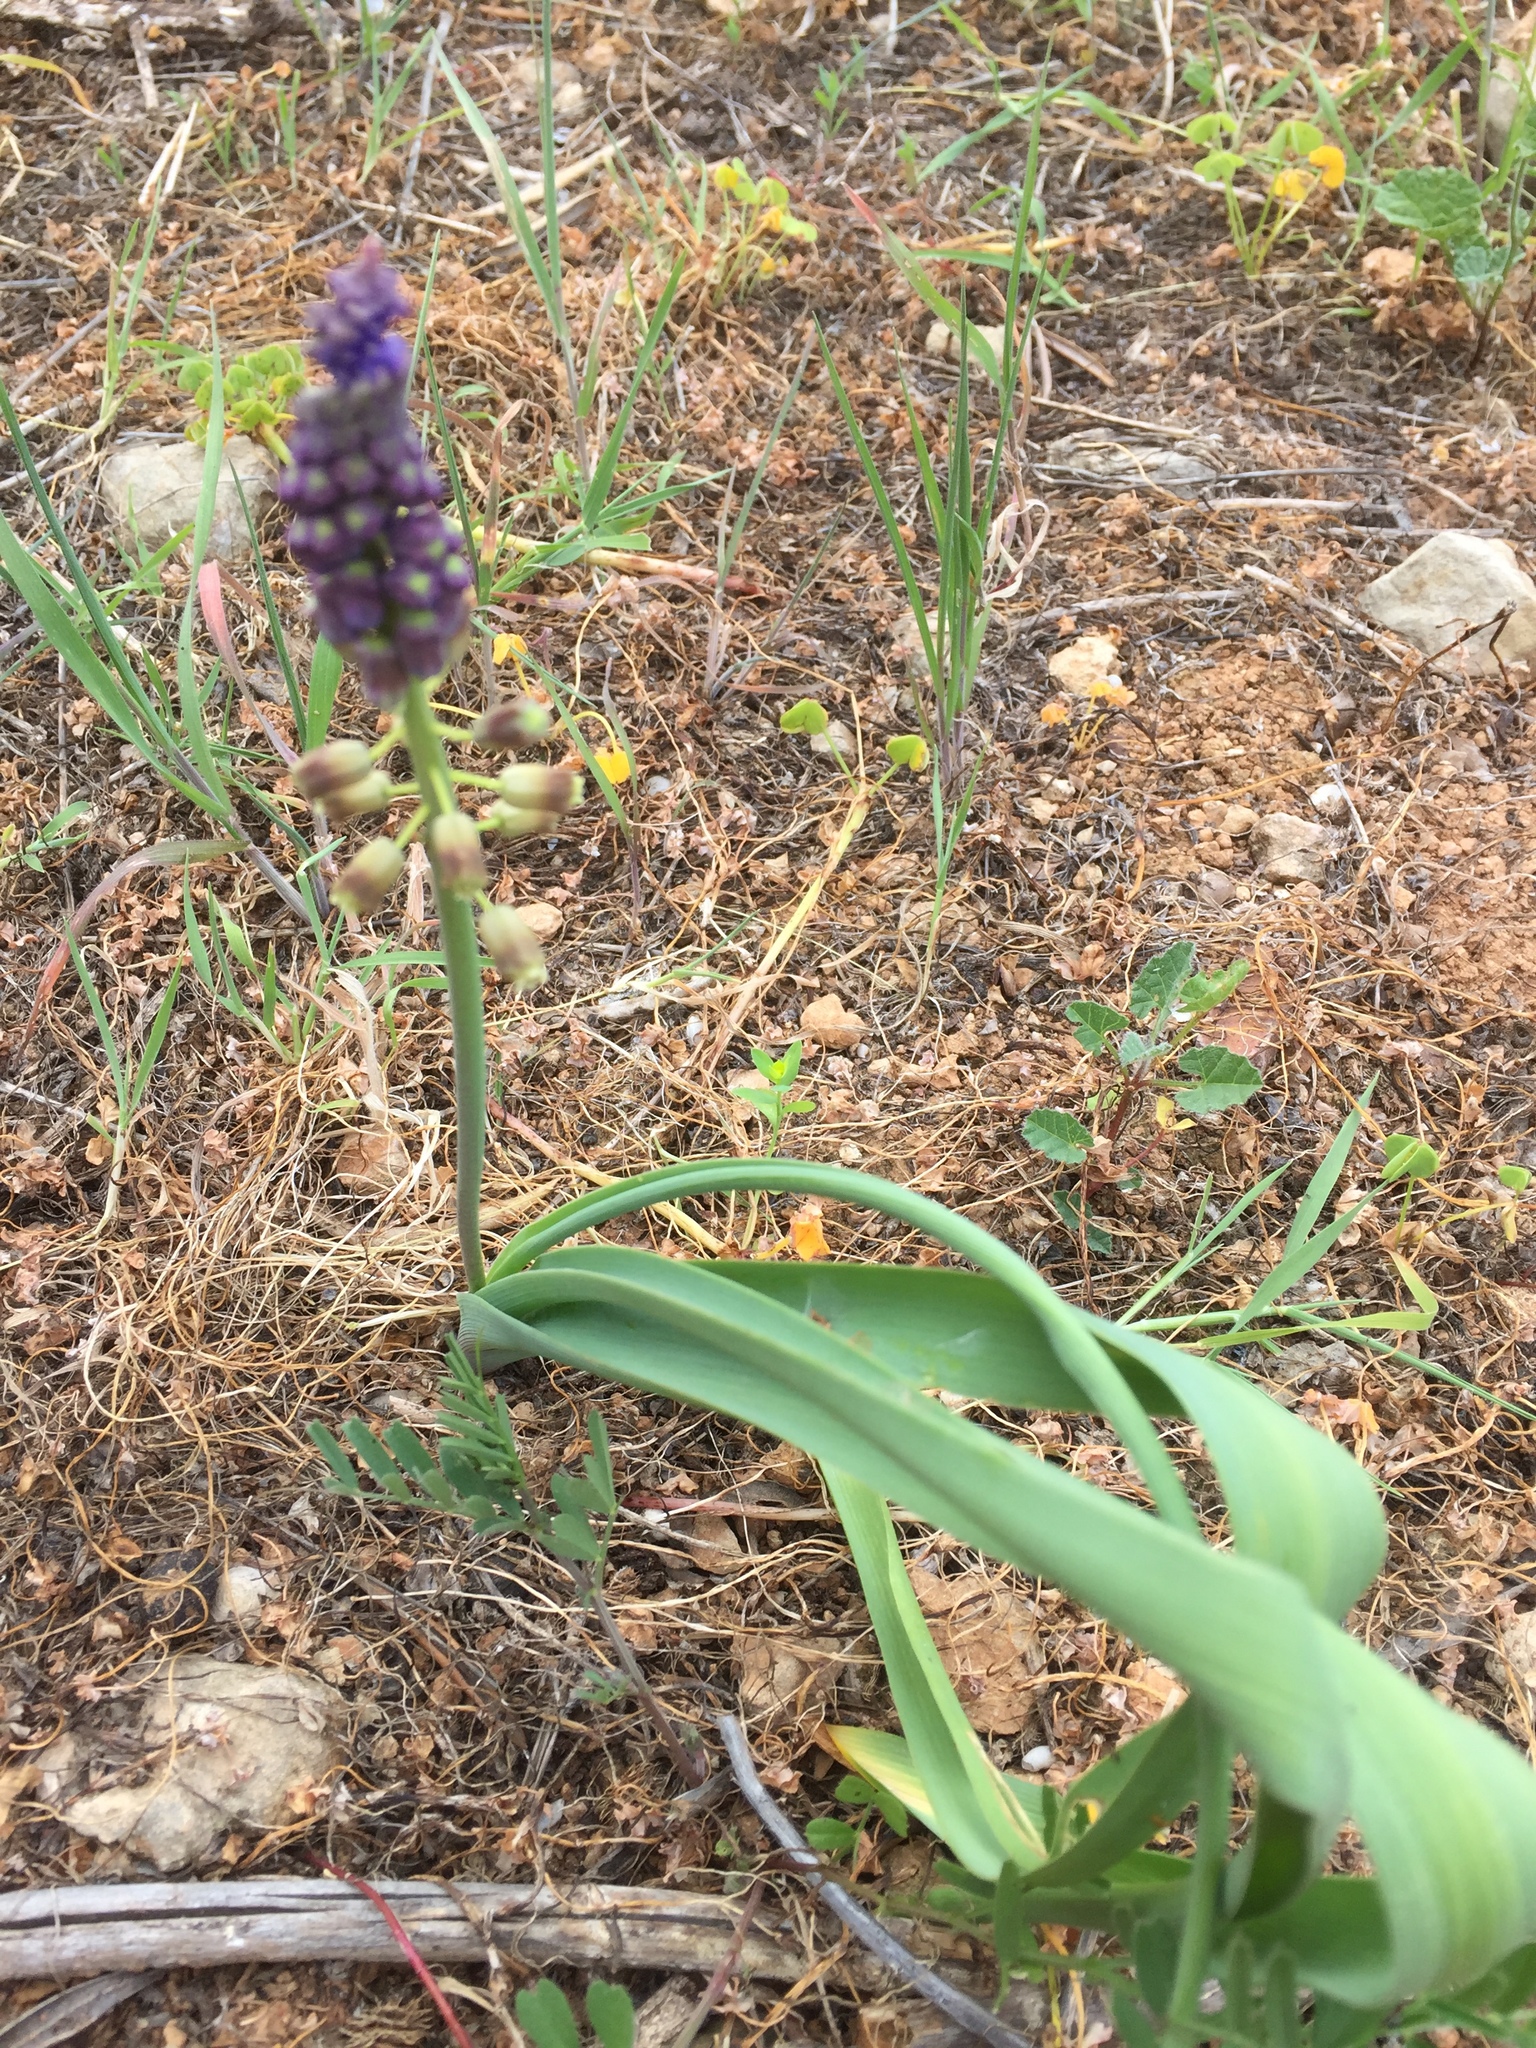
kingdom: Plantae
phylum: Tracheophyta
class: Liliopsida
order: Asparagales
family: Asparagaceae
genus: Muscari
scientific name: Muscari comosum
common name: Tassel hyacinth
